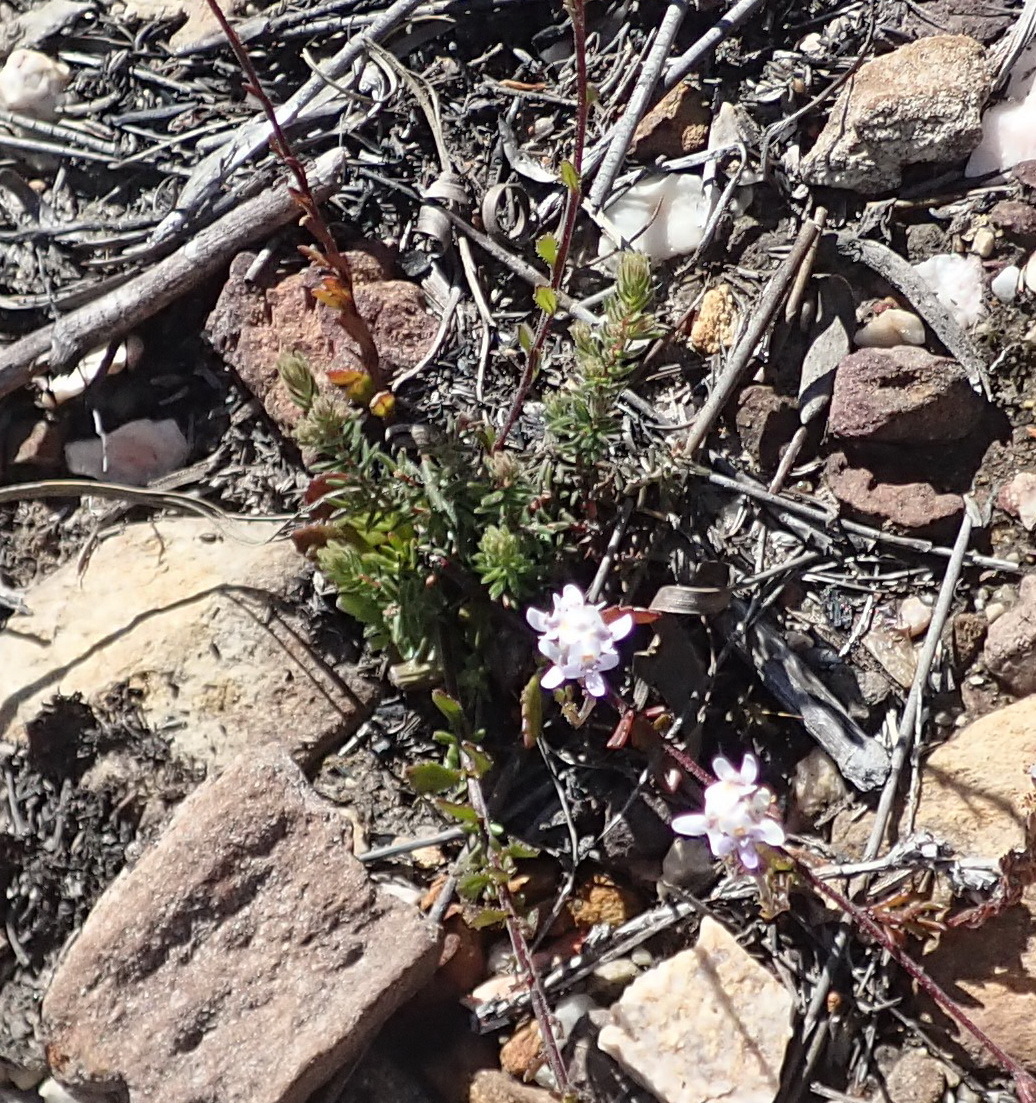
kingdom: Plantae
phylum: Tracheophyta
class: Magnoliopsida
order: Lamiales
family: Scrophulariaceae
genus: Pseudoselago
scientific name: Pseudoselago bella
